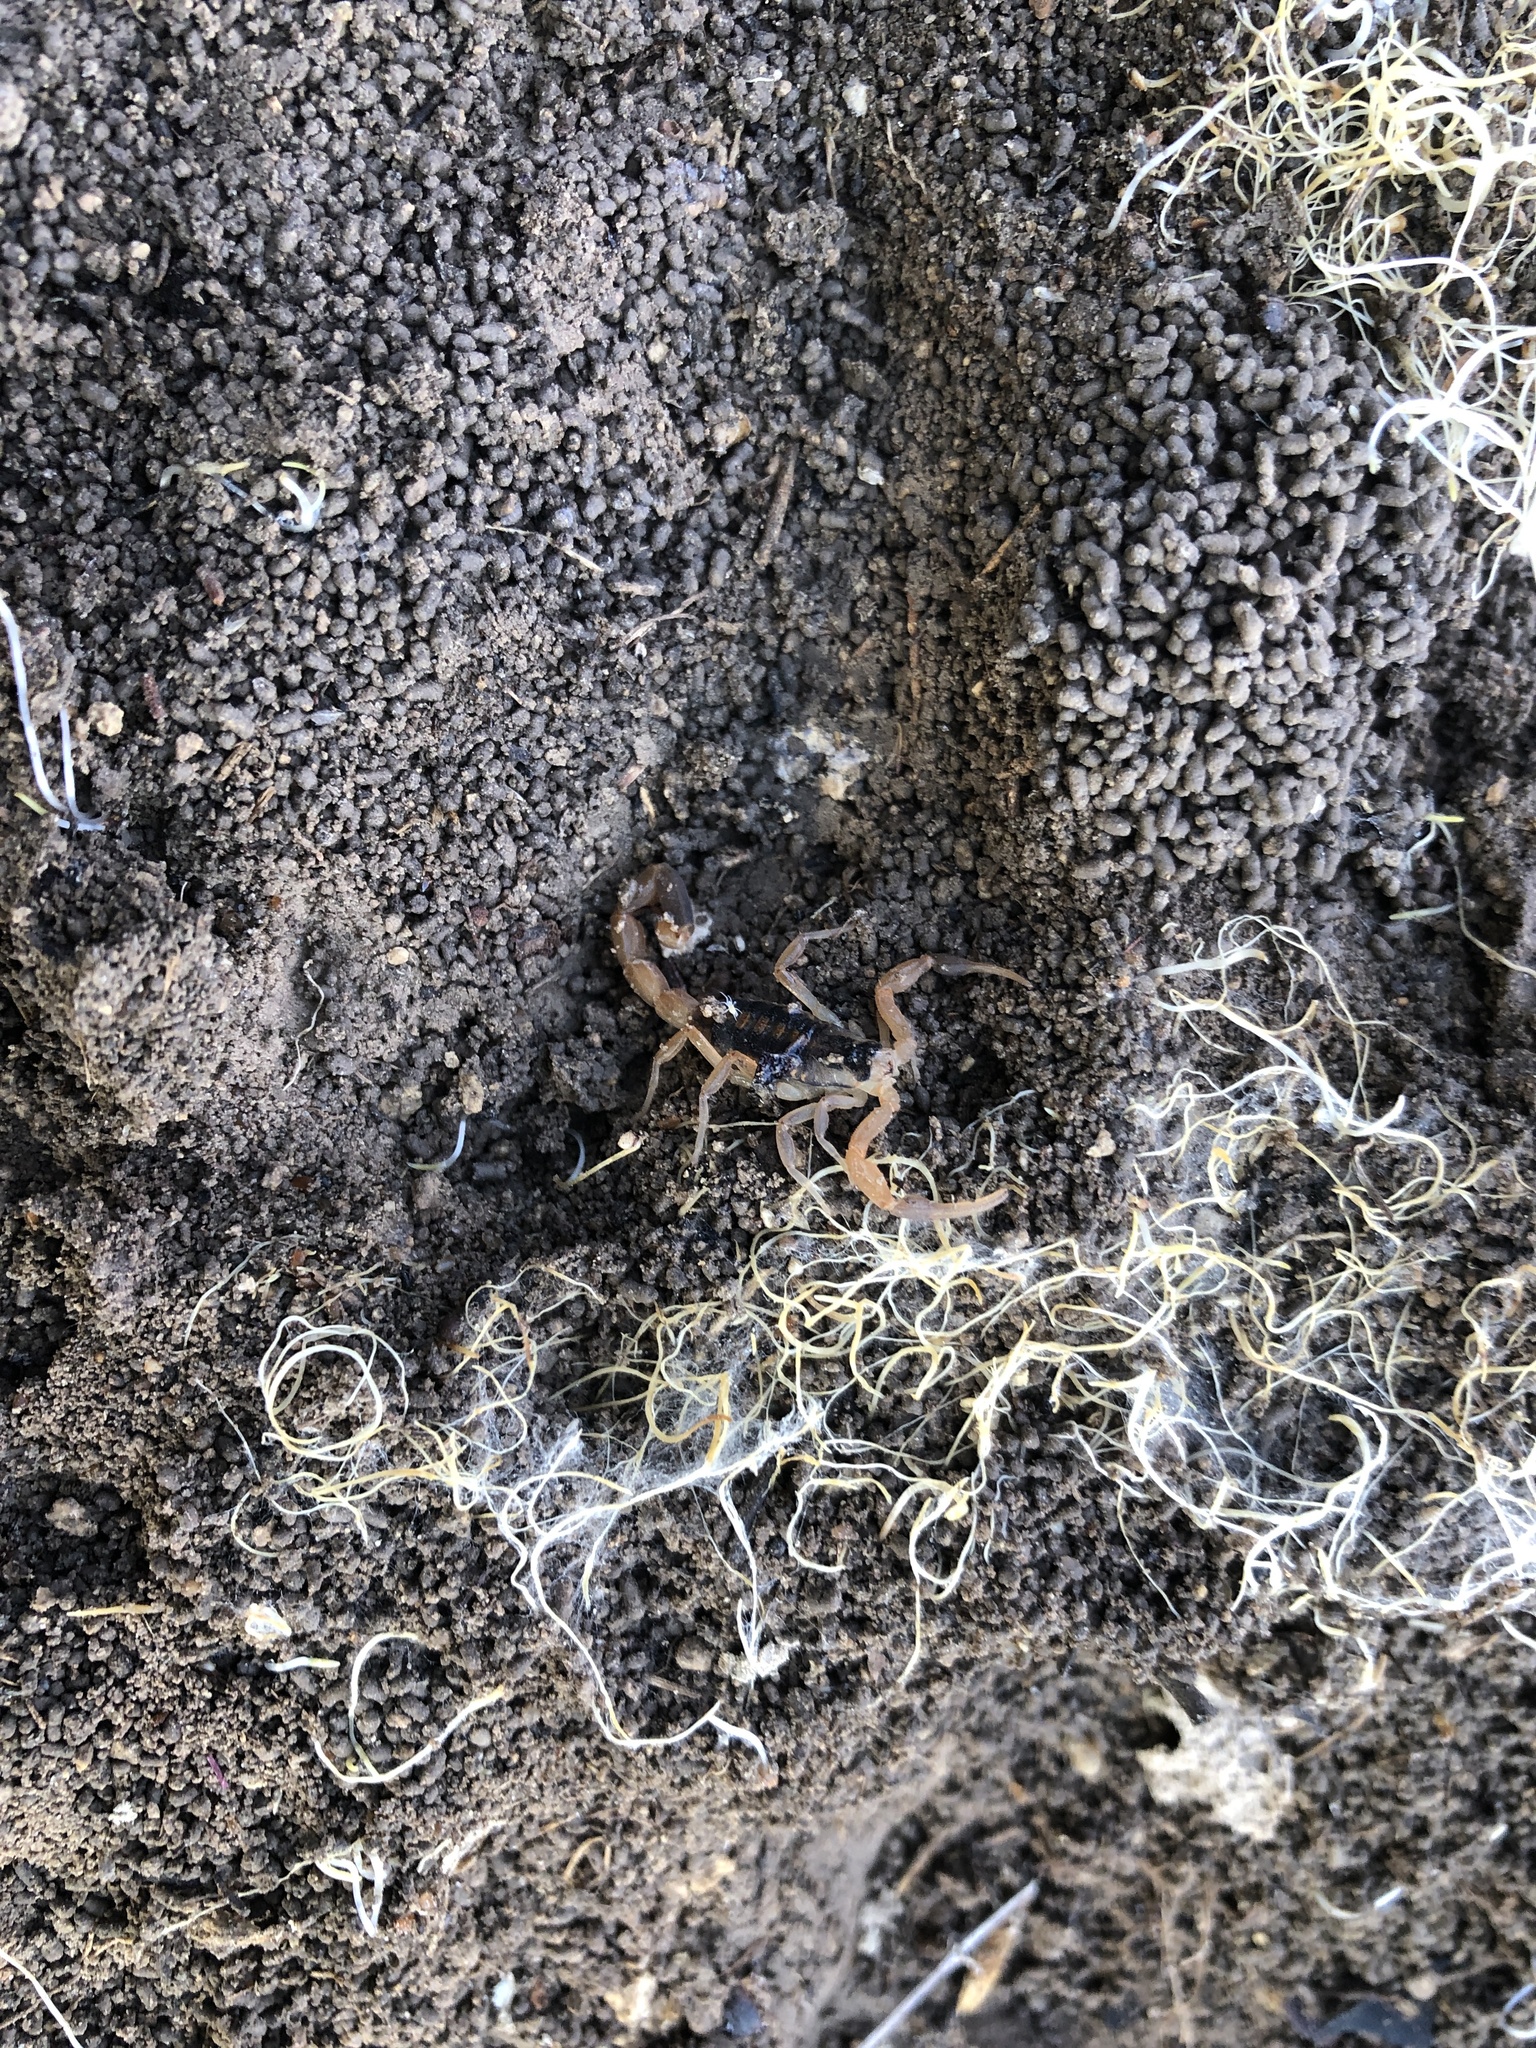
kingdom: Animalia
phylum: Arthropoda
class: Arachnida
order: Scorpiones
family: Buthidae
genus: Centruroides
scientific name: Centruroides vittatus
